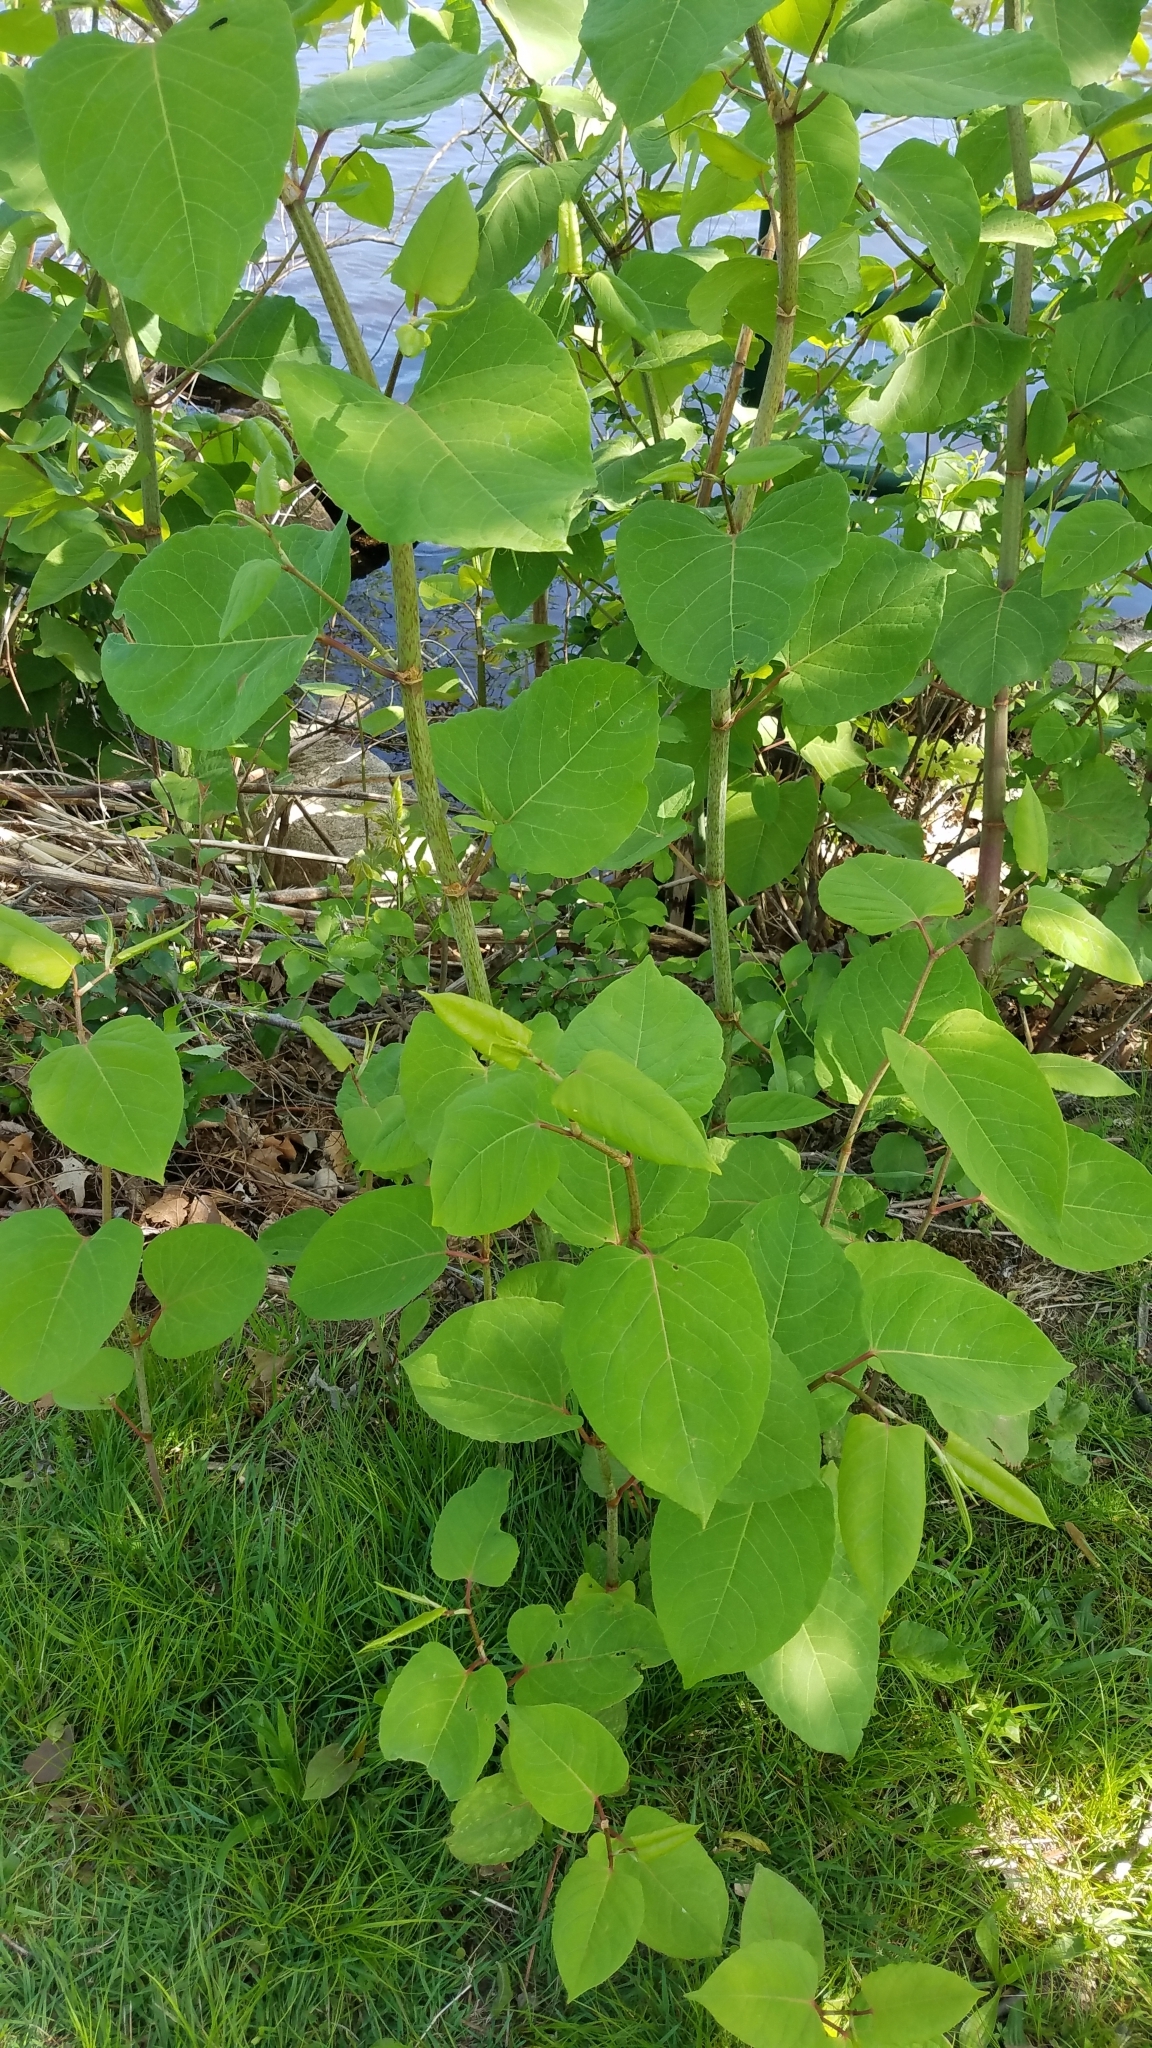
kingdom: Plantae
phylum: Tracheophyta
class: Magnoliopsida
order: Caryophyllales
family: Polygonaceae
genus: Reynoutria
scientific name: Reynoutria japonica
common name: Japanese knotweed
